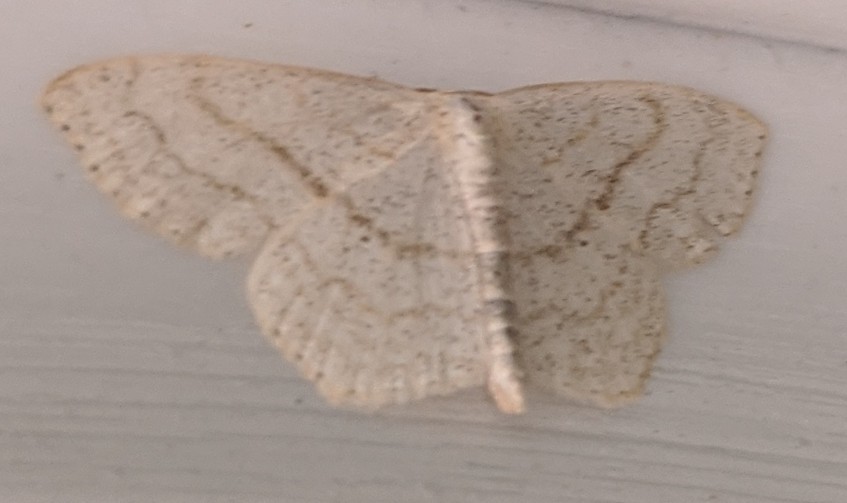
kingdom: Animalia
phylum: Arthropoda
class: Insecta
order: Lepidoptera
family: Geometridae
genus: Scopula
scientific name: Scopula limboundata
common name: Large lace border
